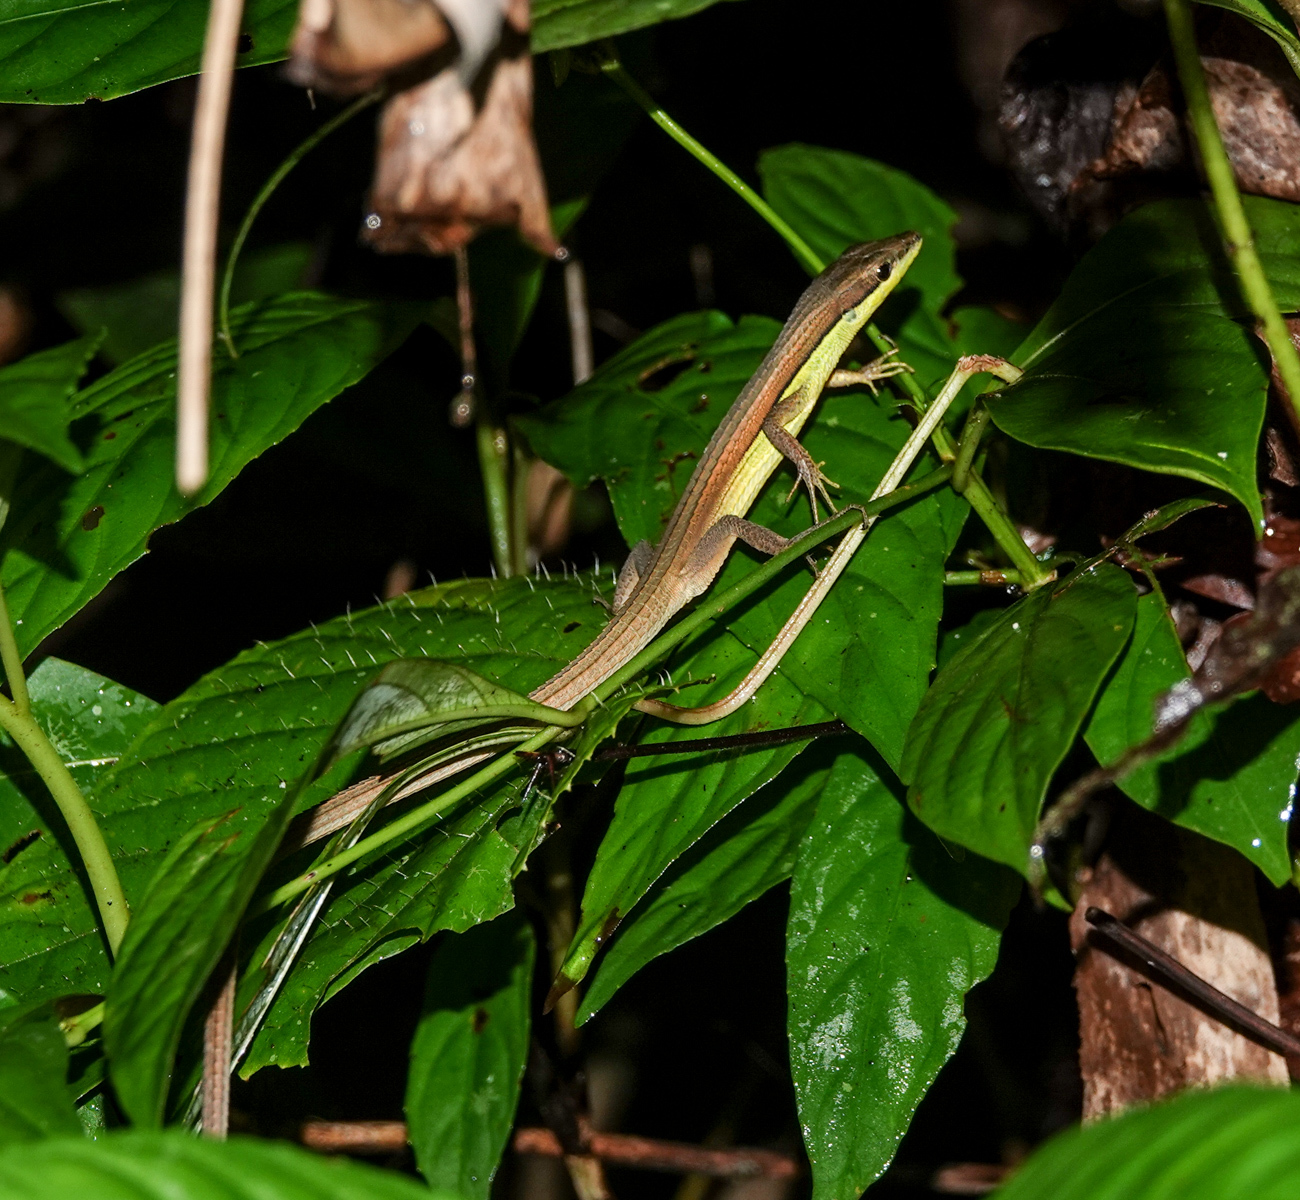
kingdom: Animalia
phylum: Chordata
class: Squamata
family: Lacertidae
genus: Takydromus
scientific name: Takydromus sexlineatus
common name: Asian grass lizard
